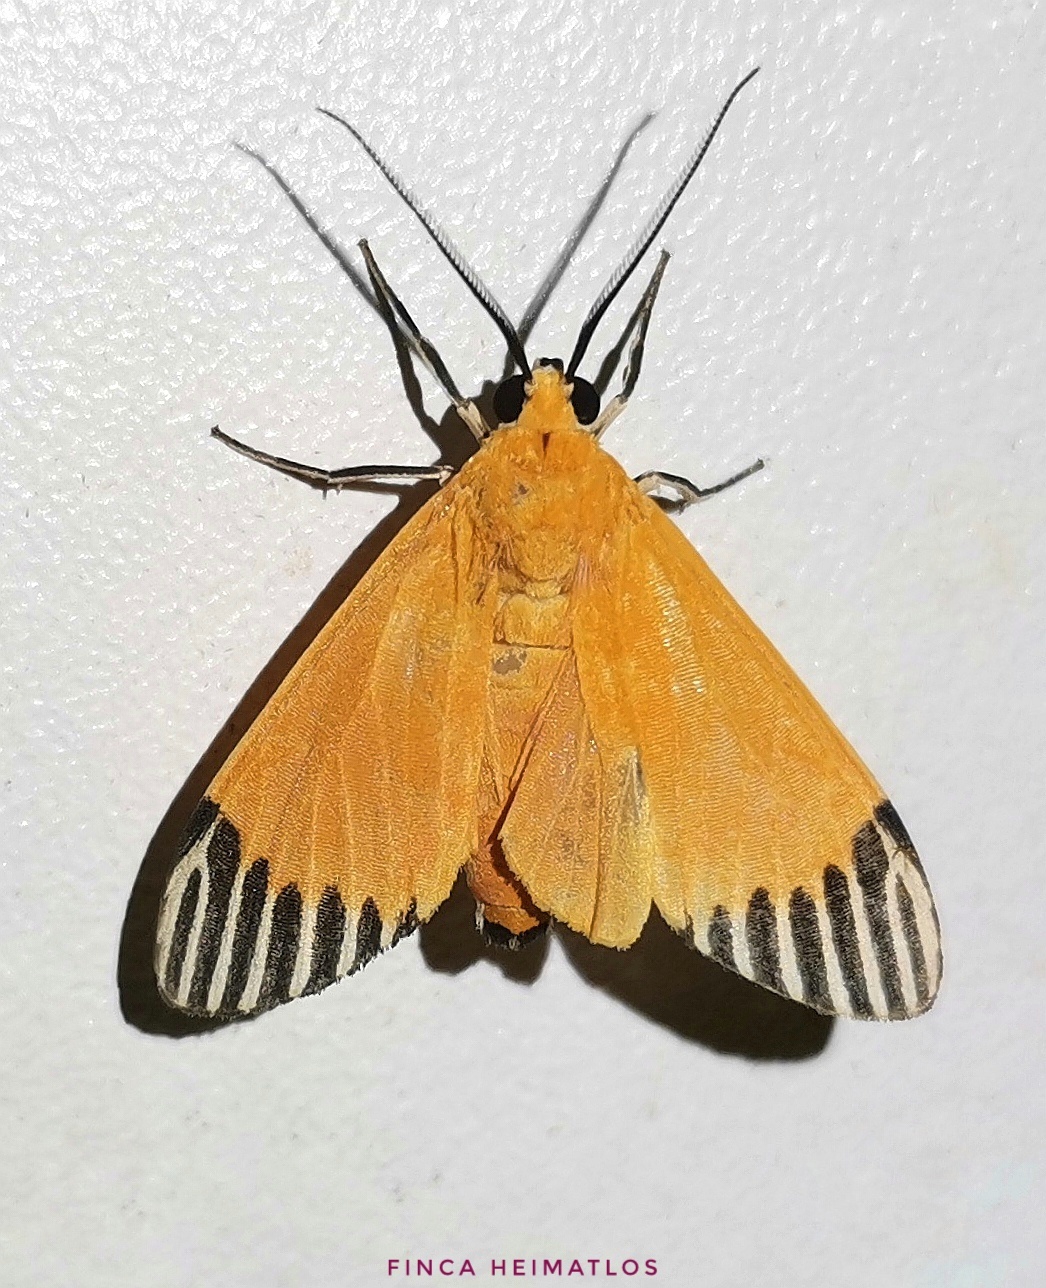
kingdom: Animalia
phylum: Arthropoda
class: Insecta
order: Lepidoptera
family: Erebidae
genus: Uranophora
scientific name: Uranophora walkeri
